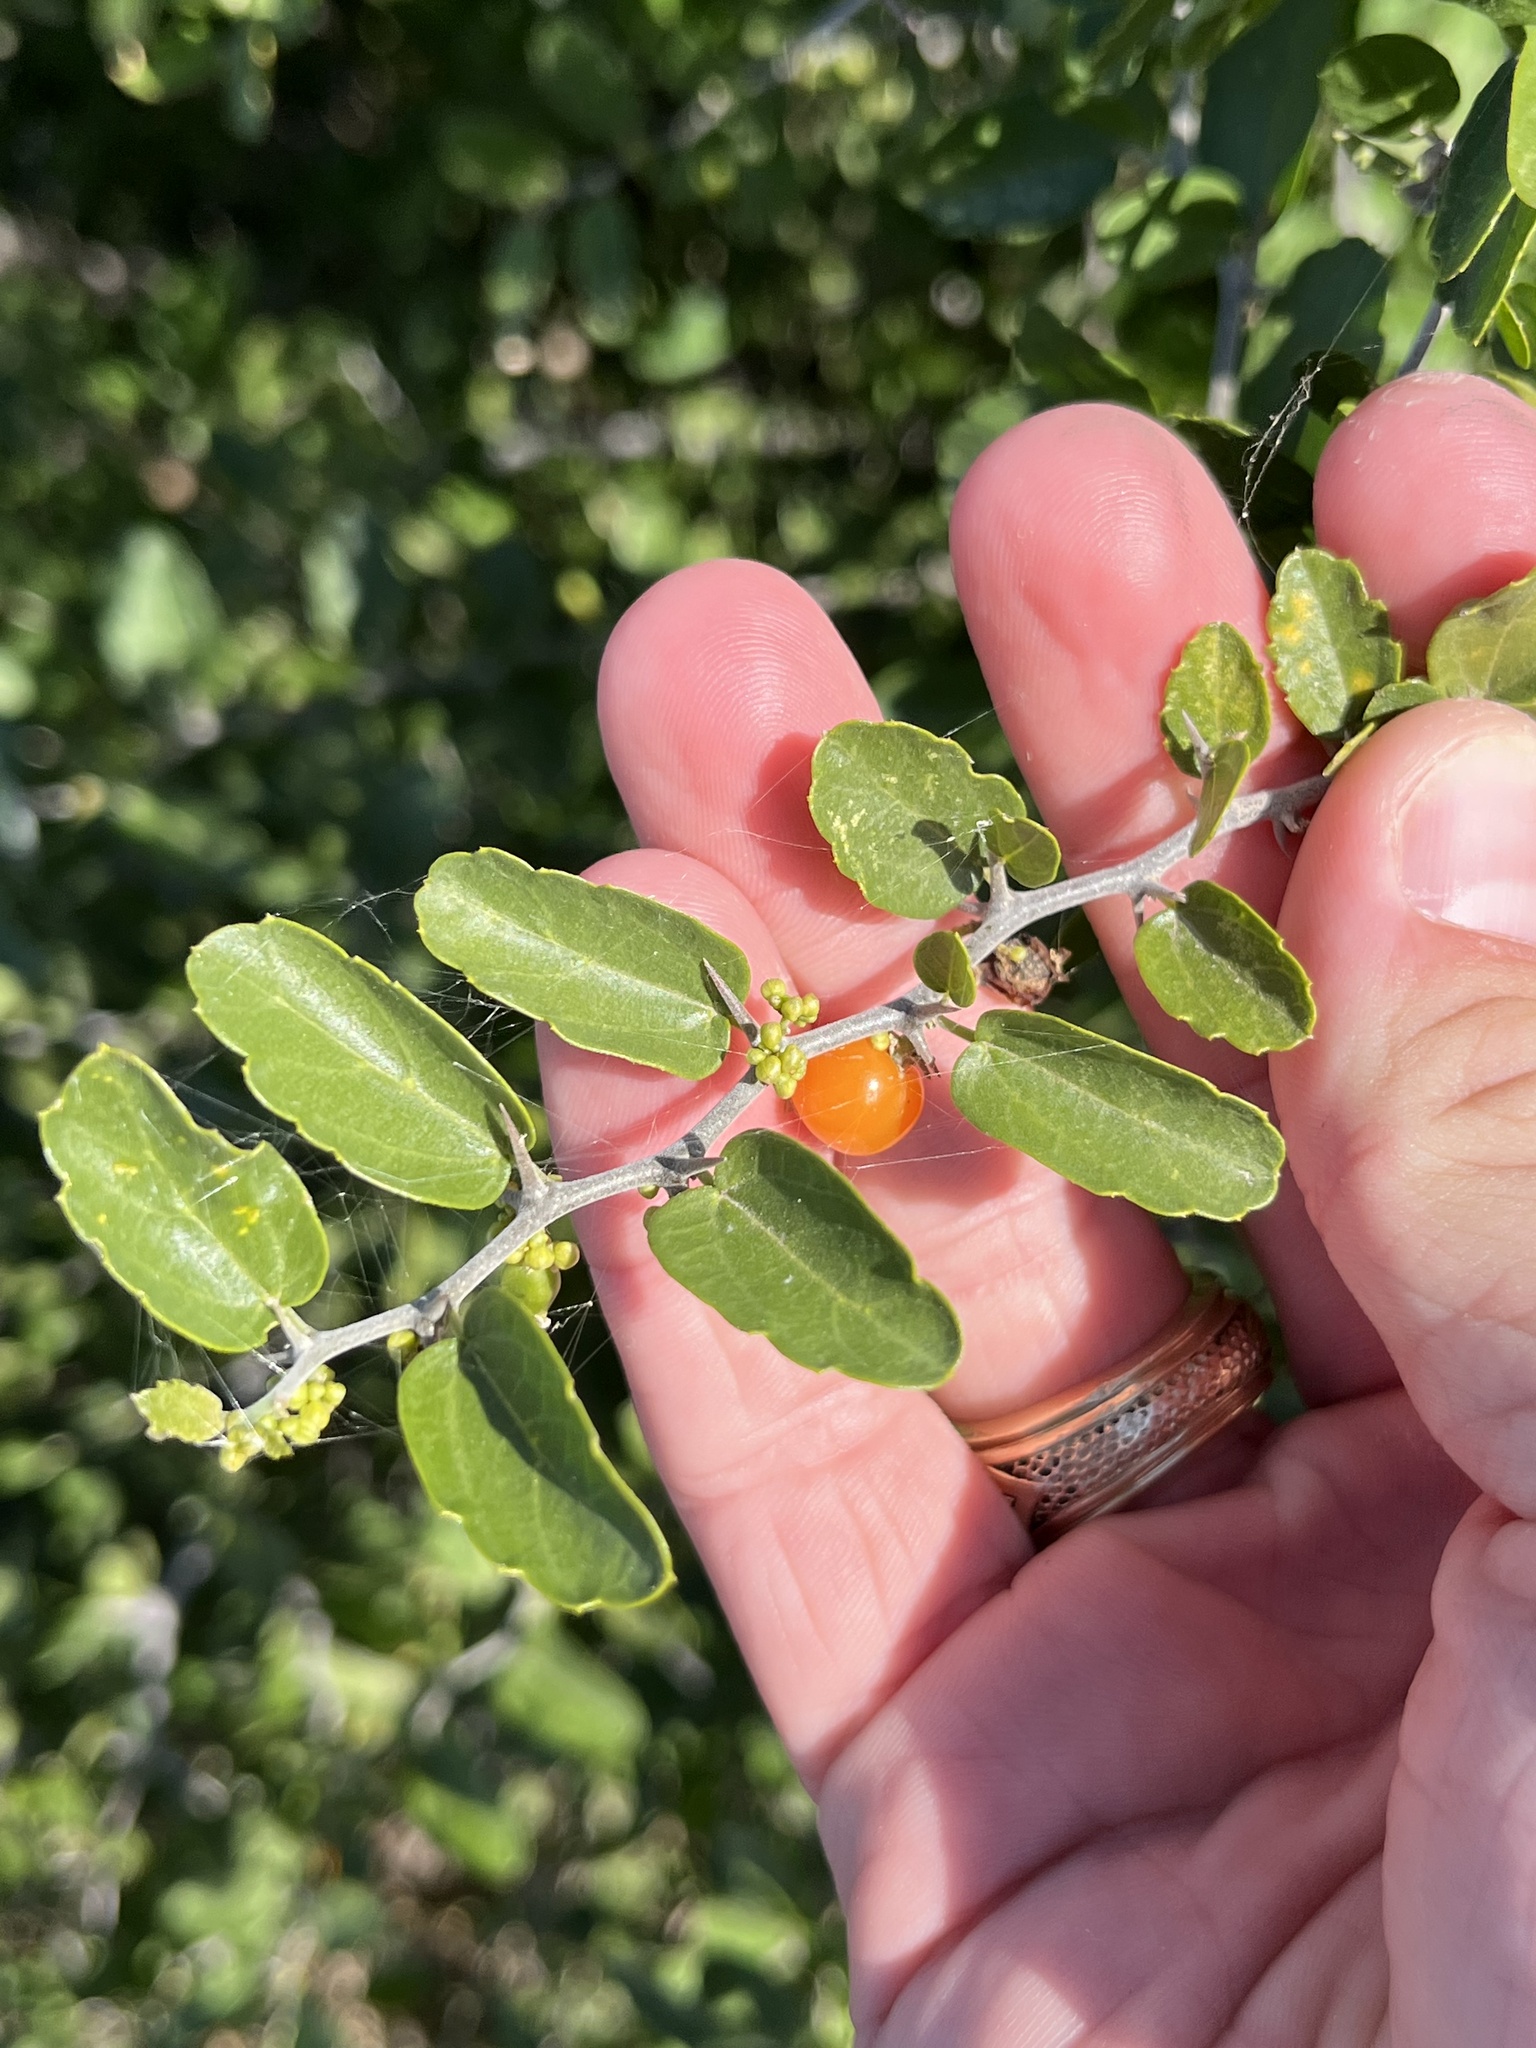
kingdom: Plantae
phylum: Tracheophyta
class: Magnoliopsida
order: Rosales
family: Cannabaceae
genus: Celtis
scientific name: Celtis pallida
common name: Desert hackberry
